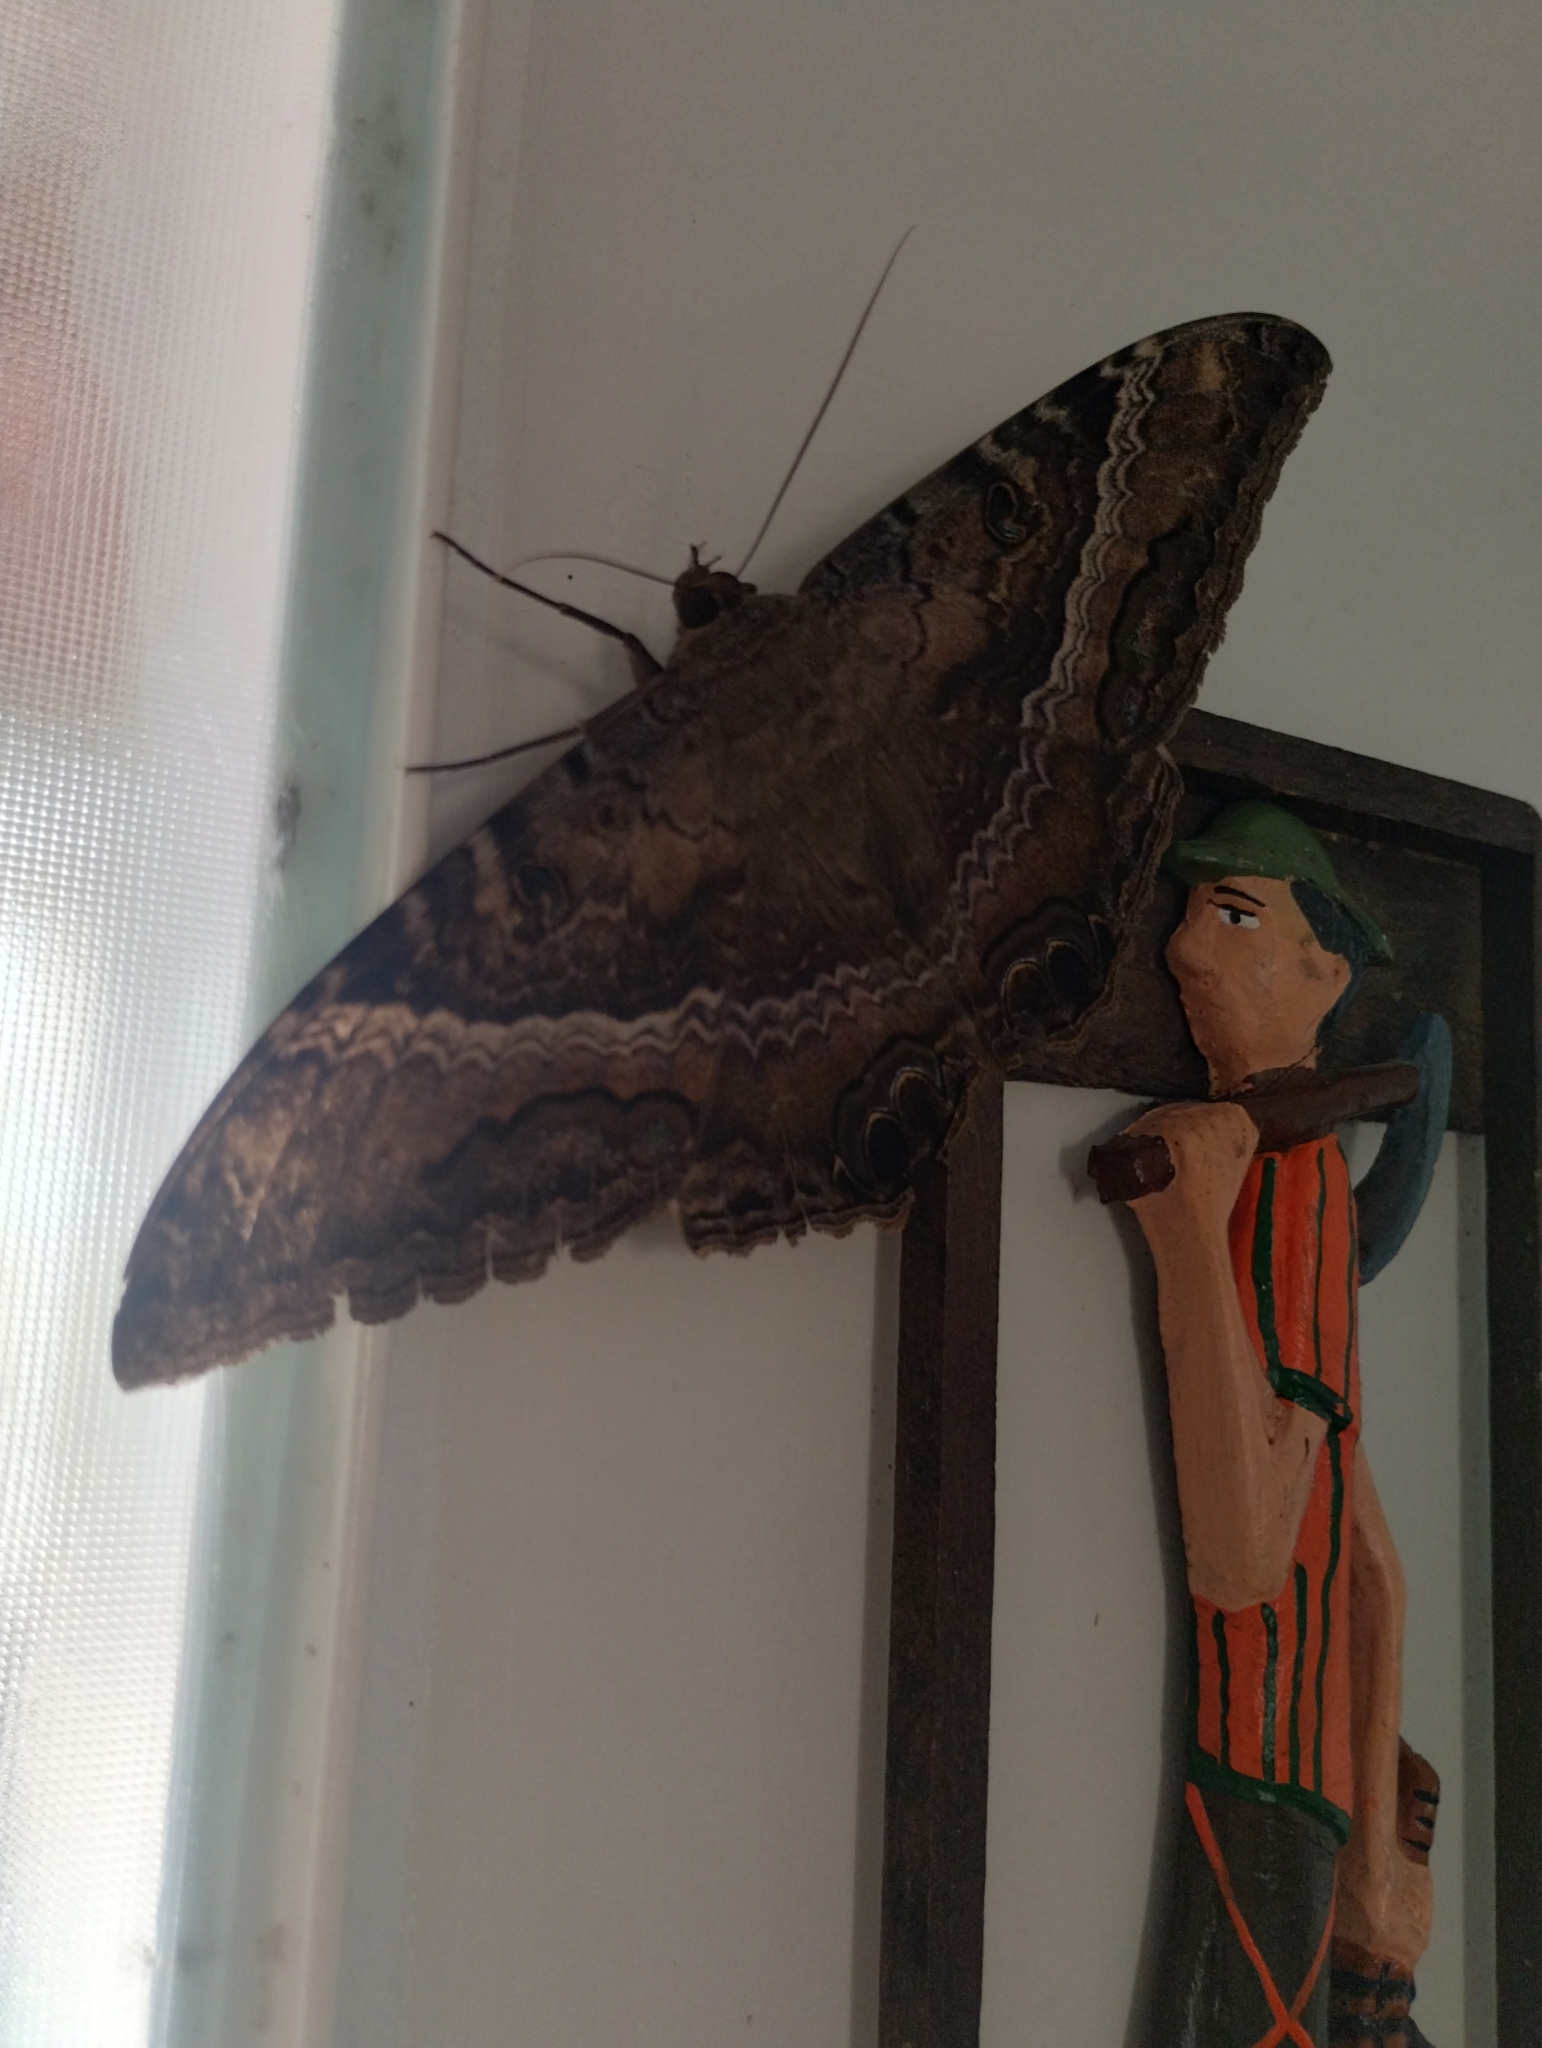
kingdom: Animalia
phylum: Arthropoda
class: Insecta
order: Lepidoptera
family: Erebidae
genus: Ascalapha
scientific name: Ascalapha odorata
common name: Black witch
